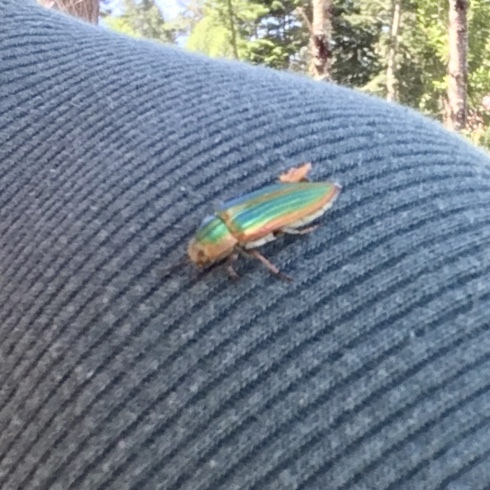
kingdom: Animalia
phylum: Arthropoda
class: Insecta
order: Coleoptera
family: Buprestidae
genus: Buprestis
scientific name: Buprestis aurulenta
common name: Golden buprestid
